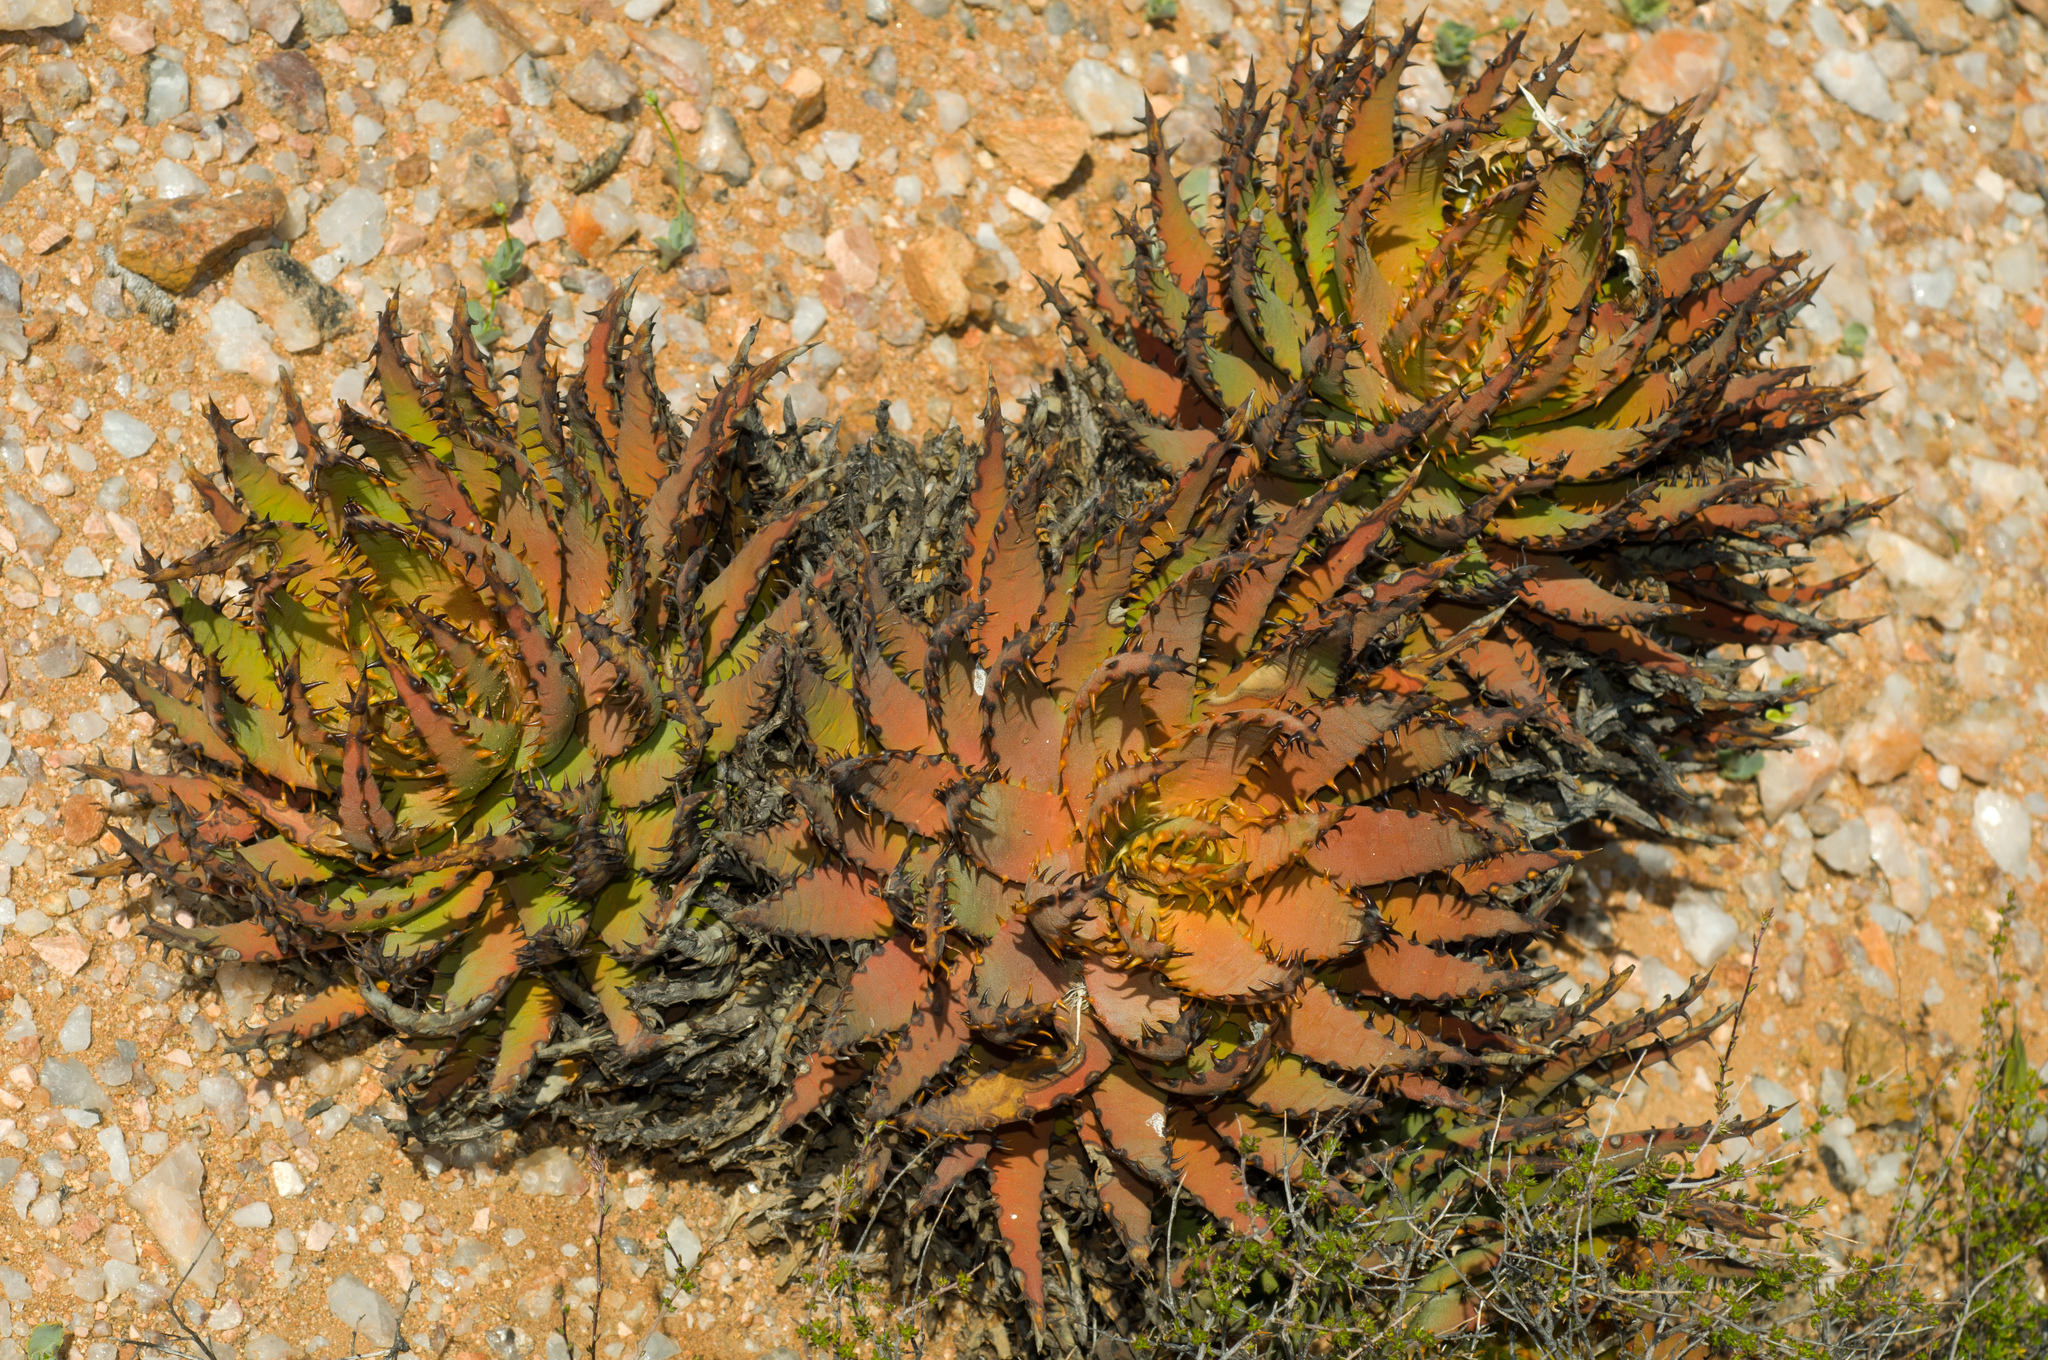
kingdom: Plantae
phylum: Tracheophyta
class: Liliopsida
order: Asparagales
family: Asphodelaceae
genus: Aloe
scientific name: Aloe melanacantha
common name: Black thorn aloe
